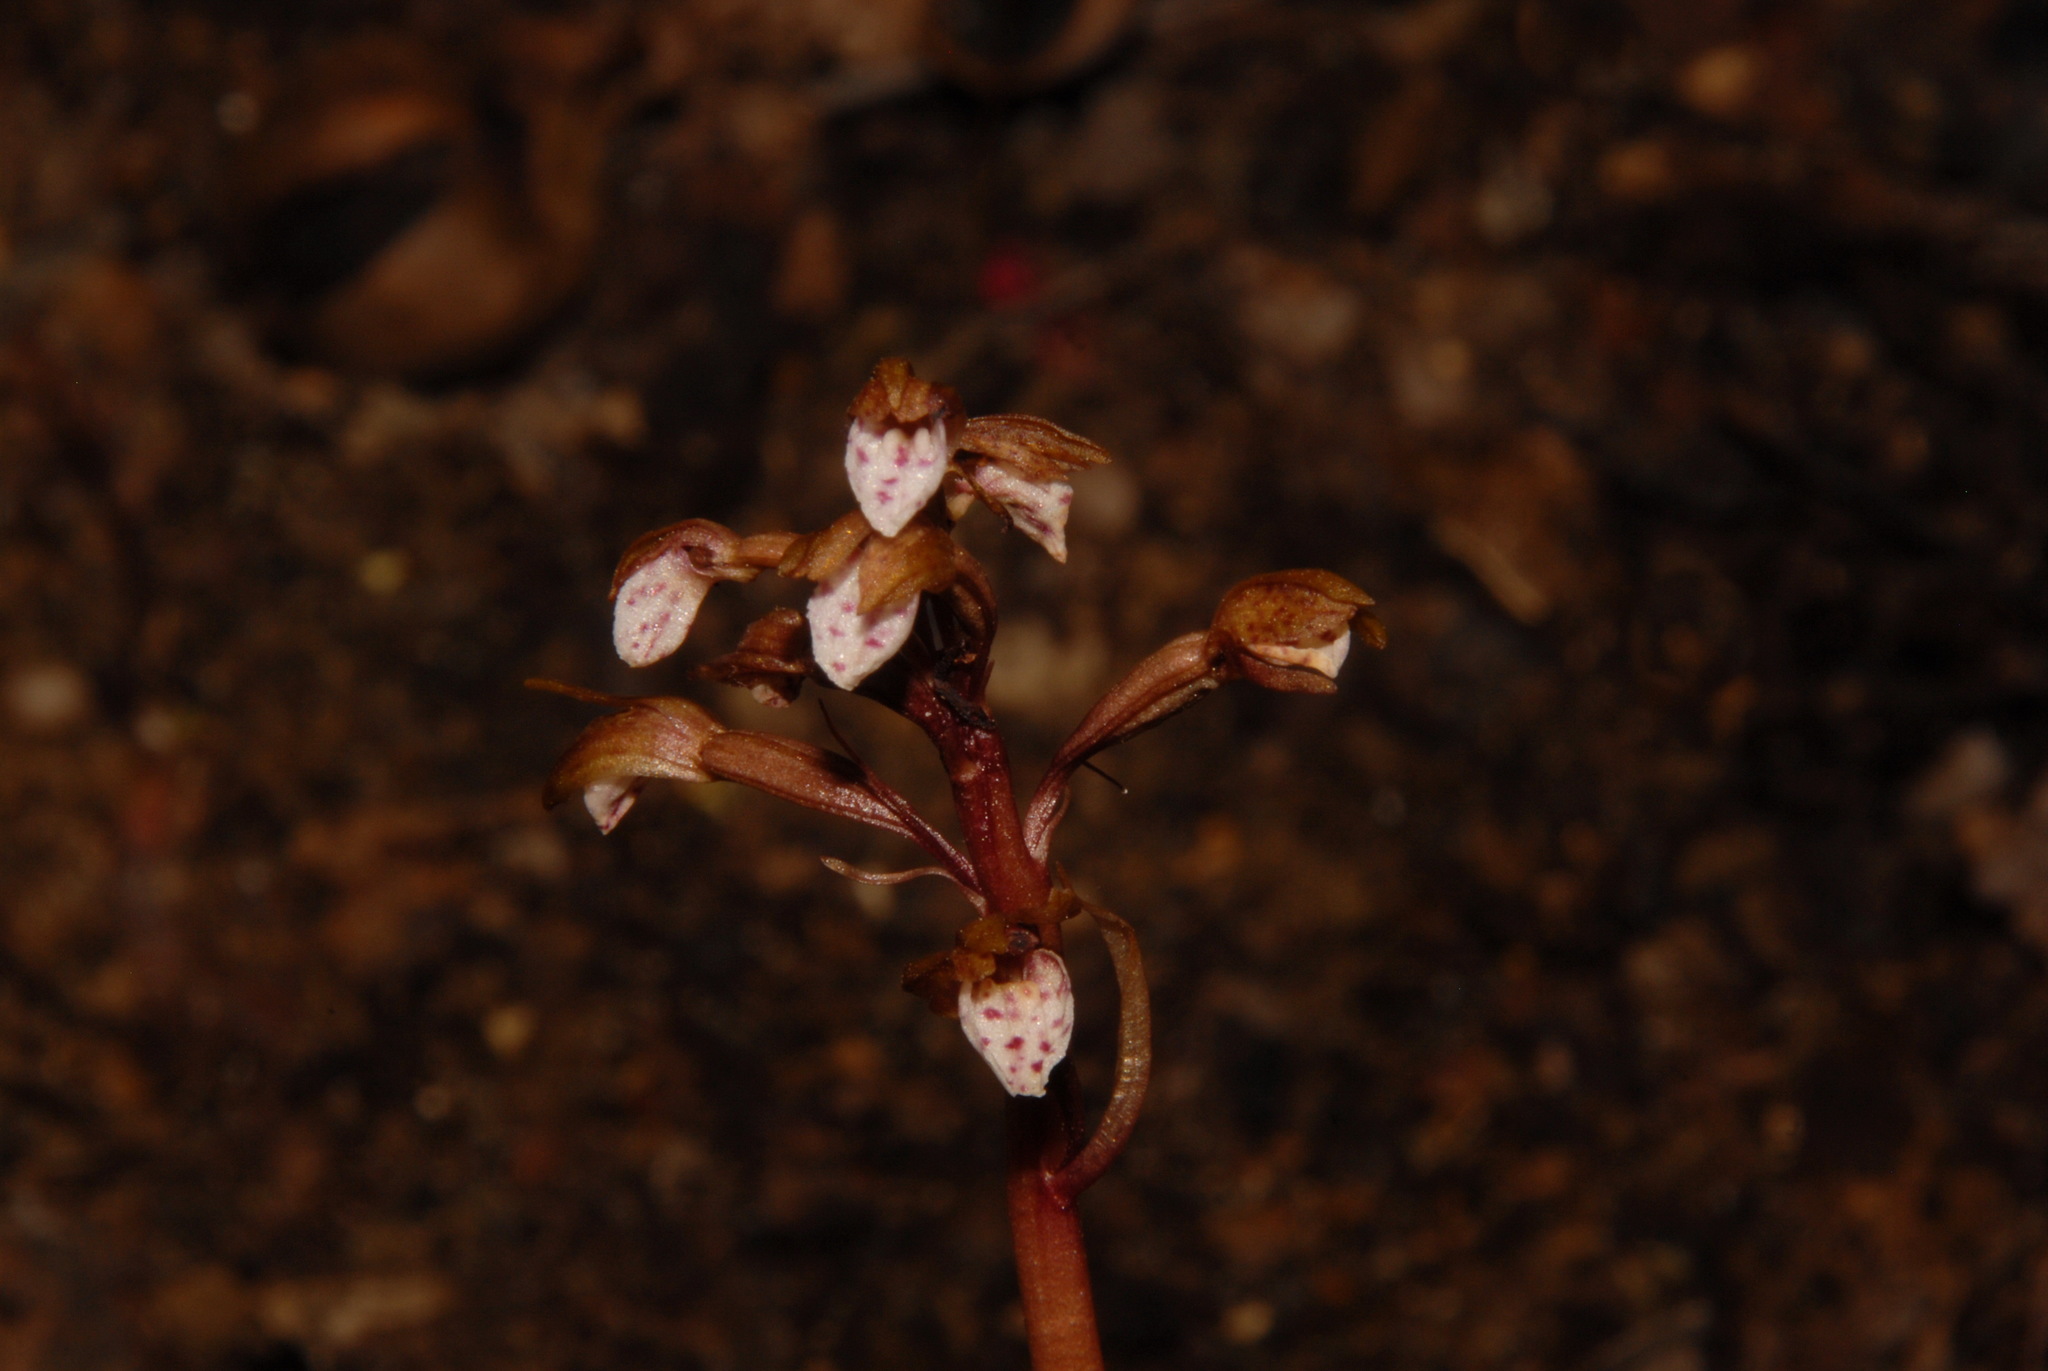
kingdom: Plantae
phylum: Tracheophyta
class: Liliopsida
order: Asparagales
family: Orchidaceae
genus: Corallorhiza
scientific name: Corallorhiza wisteriana
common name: Spring coralroot
